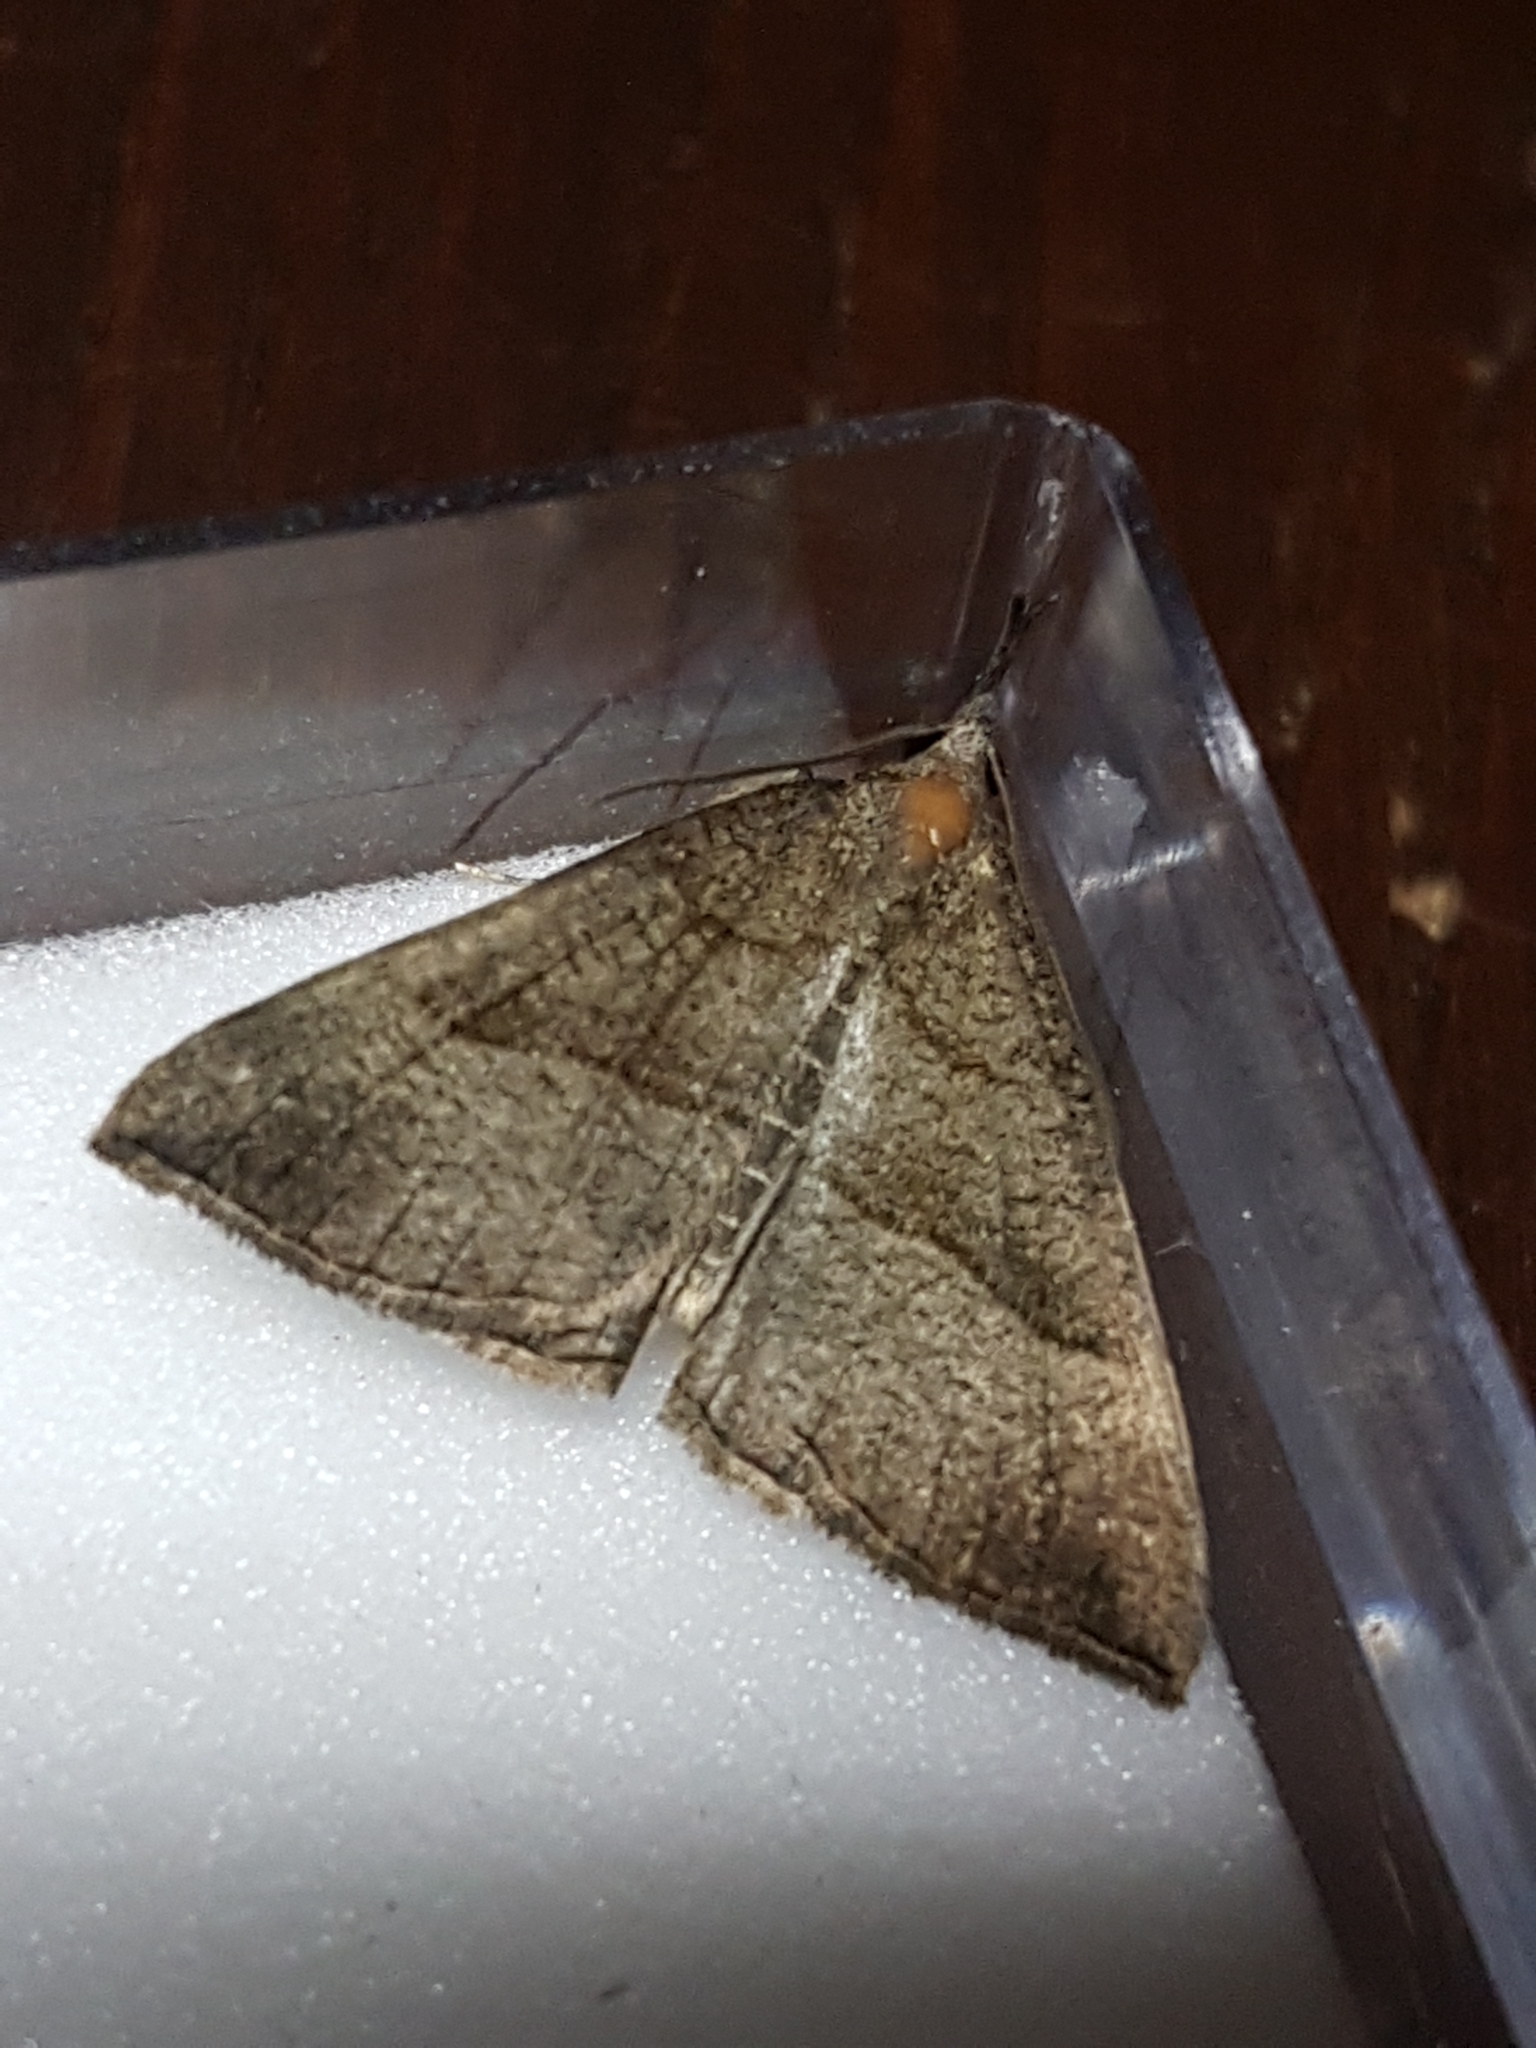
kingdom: Animalia
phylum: Arthropoda
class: Insecta
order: Lepidoptera
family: Erebidae
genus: Hypena
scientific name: Hypena proboscidalis
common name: Snout
